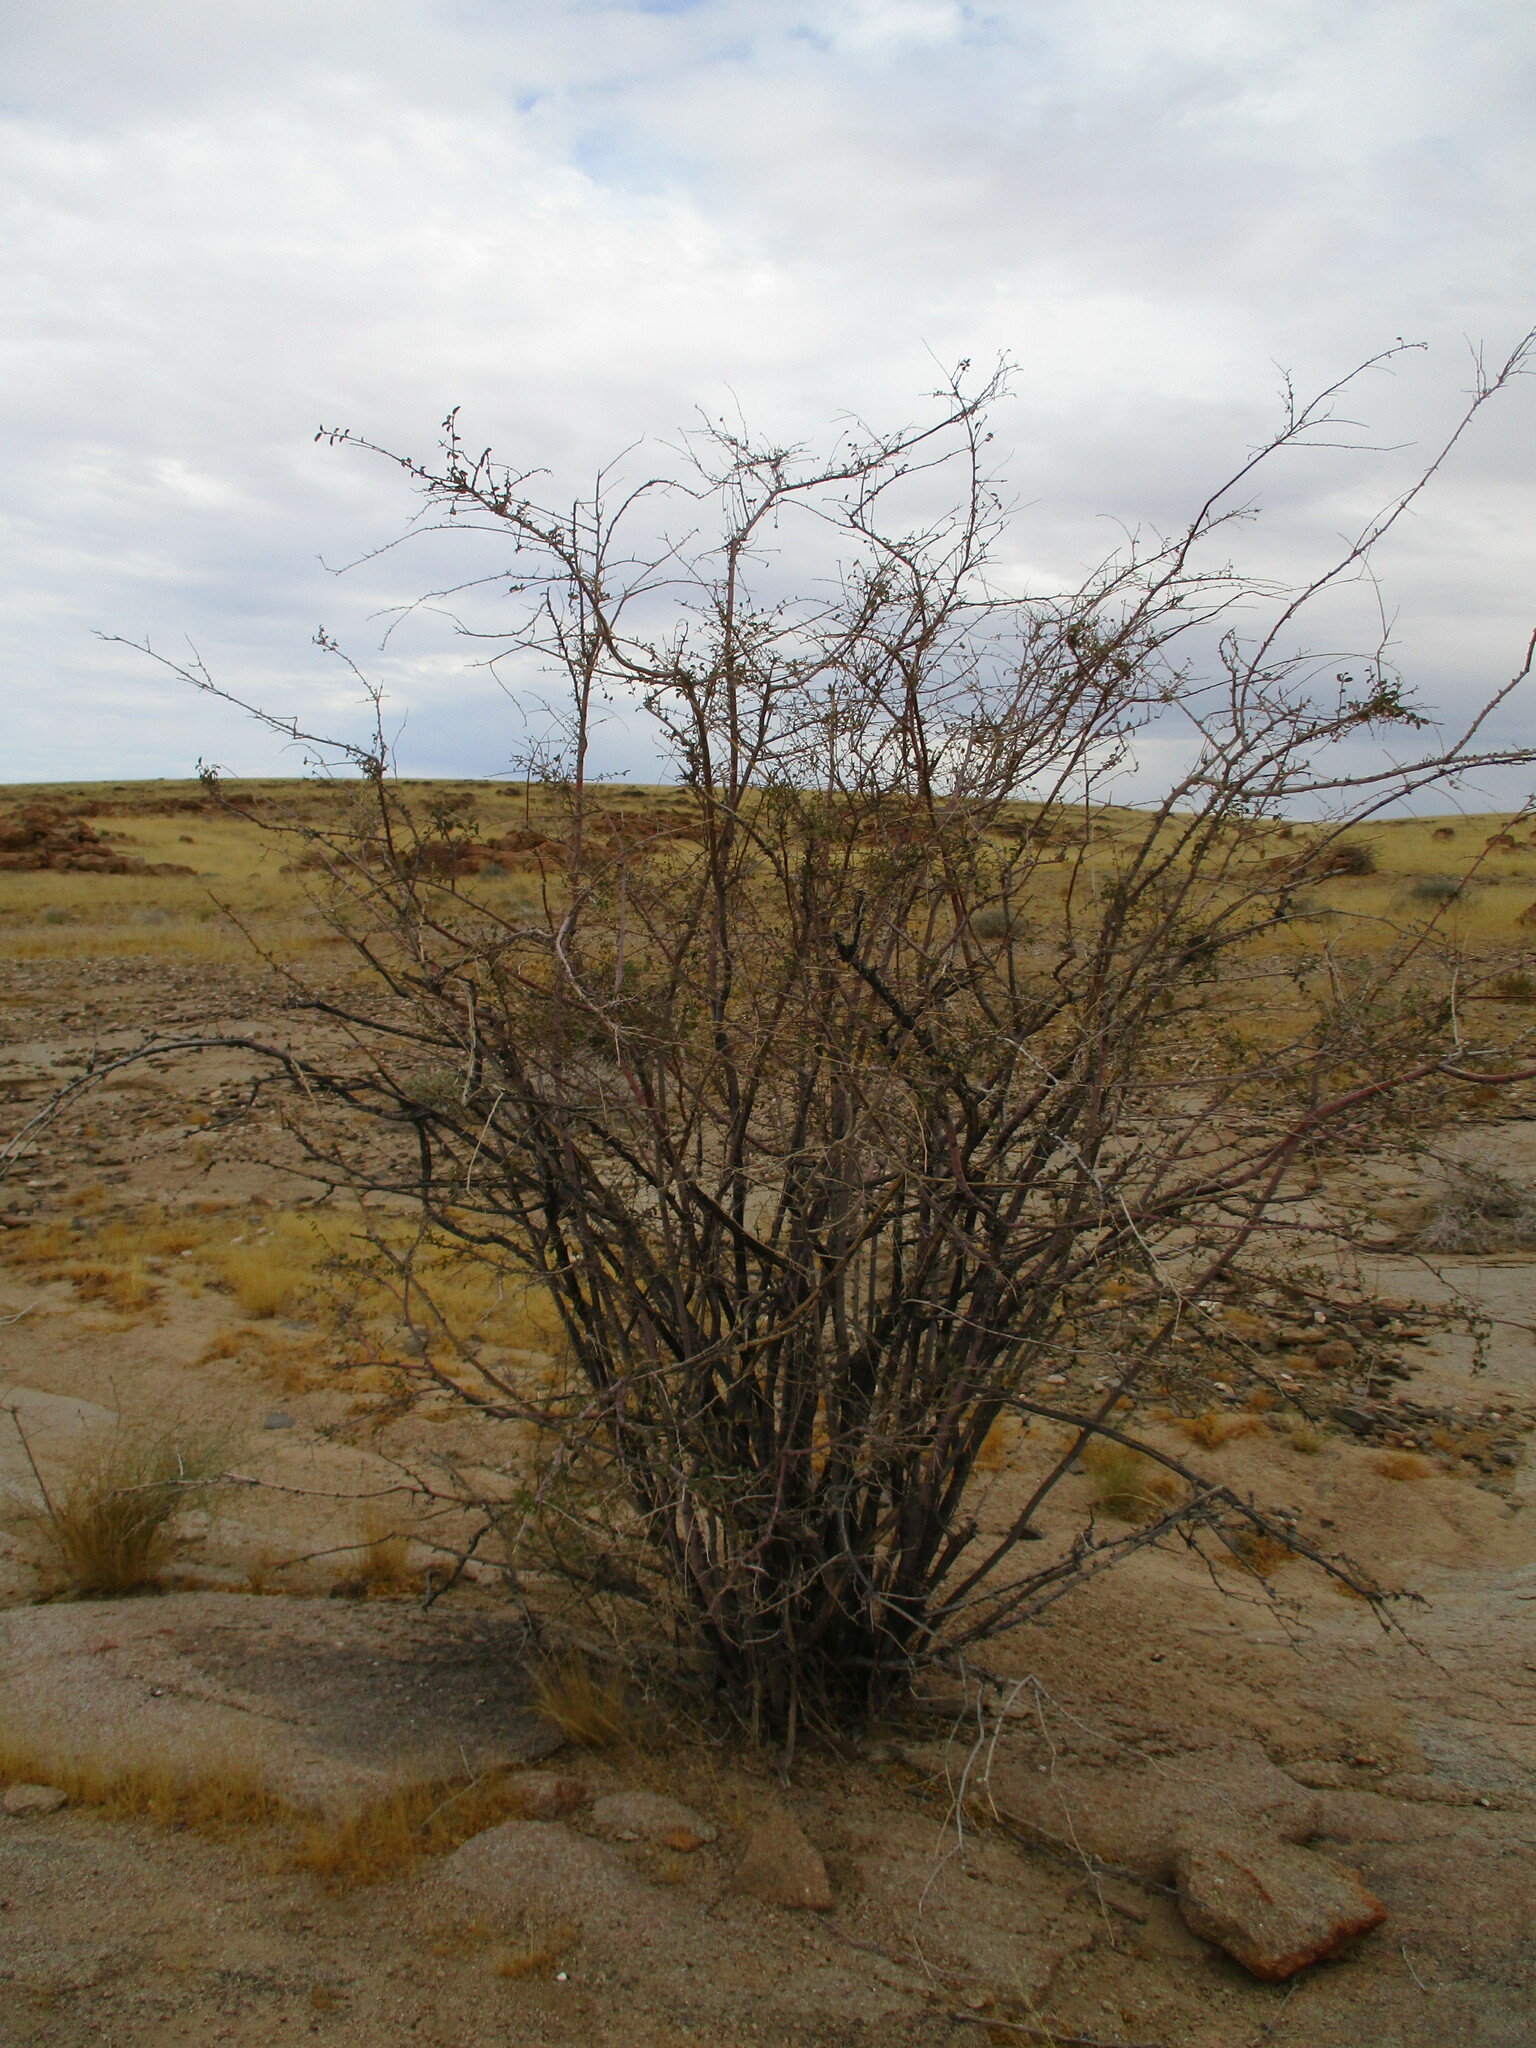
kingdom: Plantae
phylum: Tracheophyta
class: Magnoliopsida
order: Malvales
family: Malvaceae
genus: Grewia
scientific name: Grewia tenax
